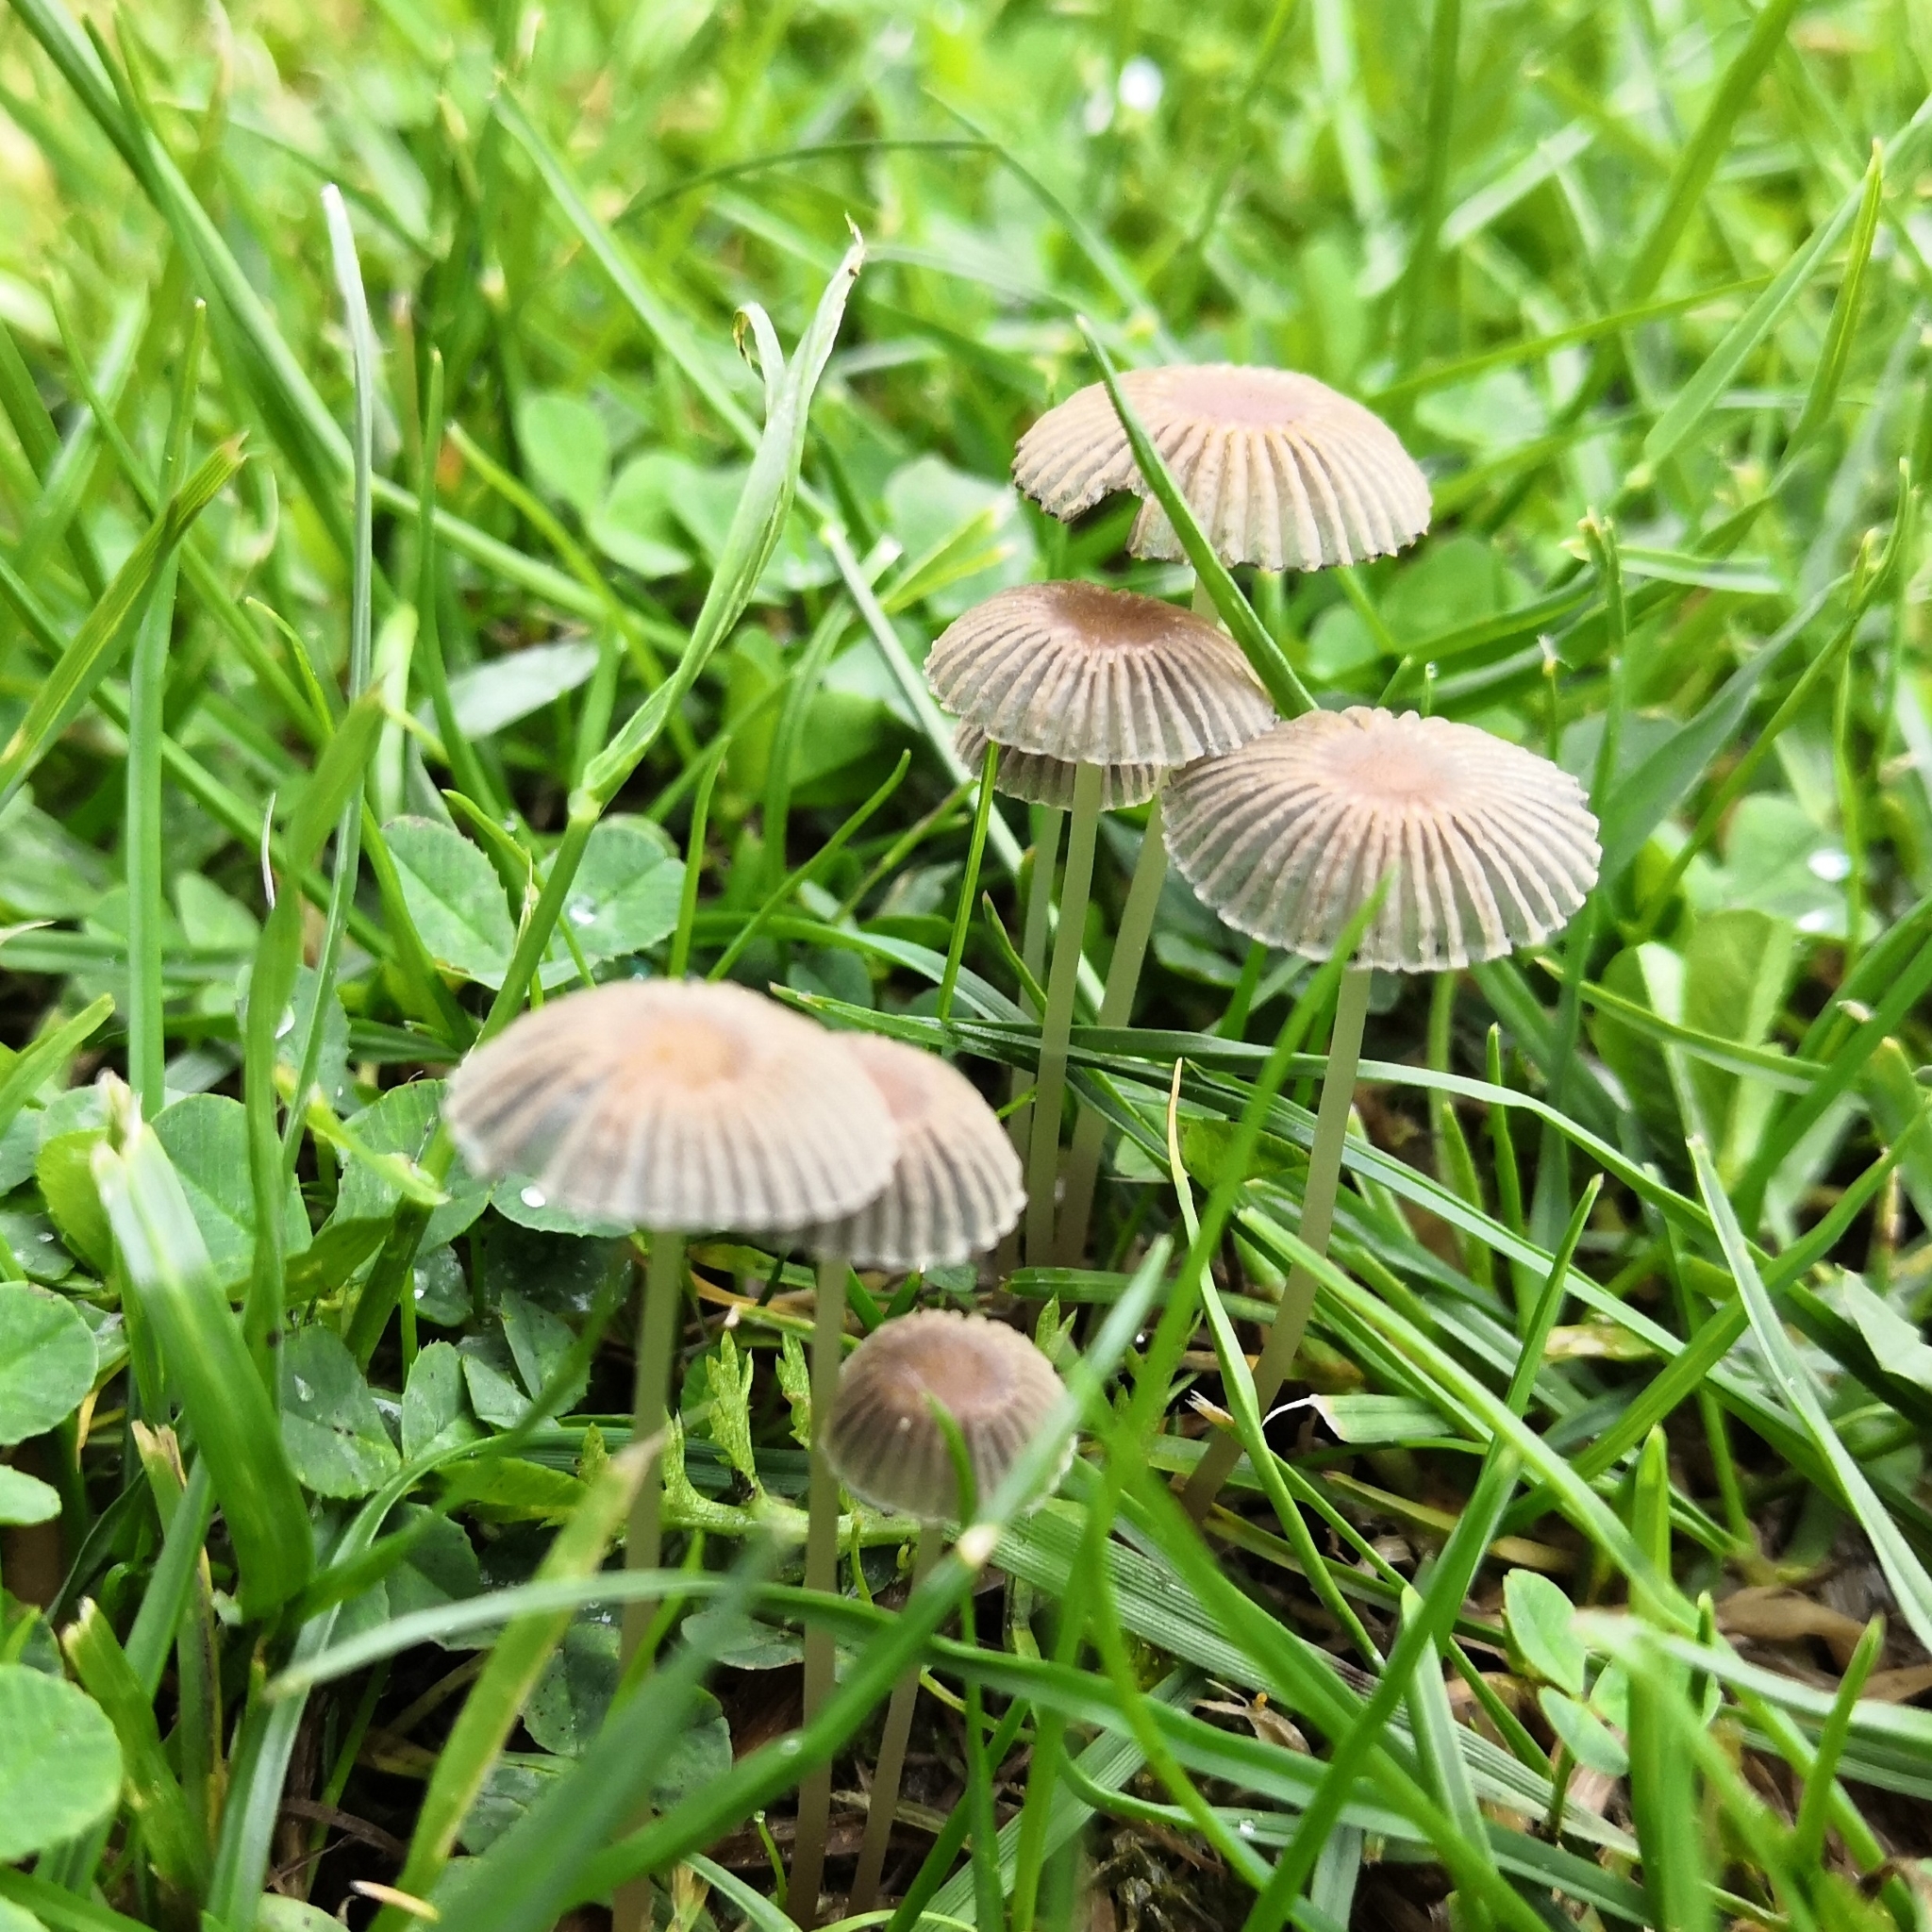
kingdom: Fungi
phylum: Basidiomycota
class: Agaricomycetes
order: Agaricales
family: Psathyrellaceae
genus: Parasola
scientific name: Parasola plicatilis
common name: Pleated inkcap
